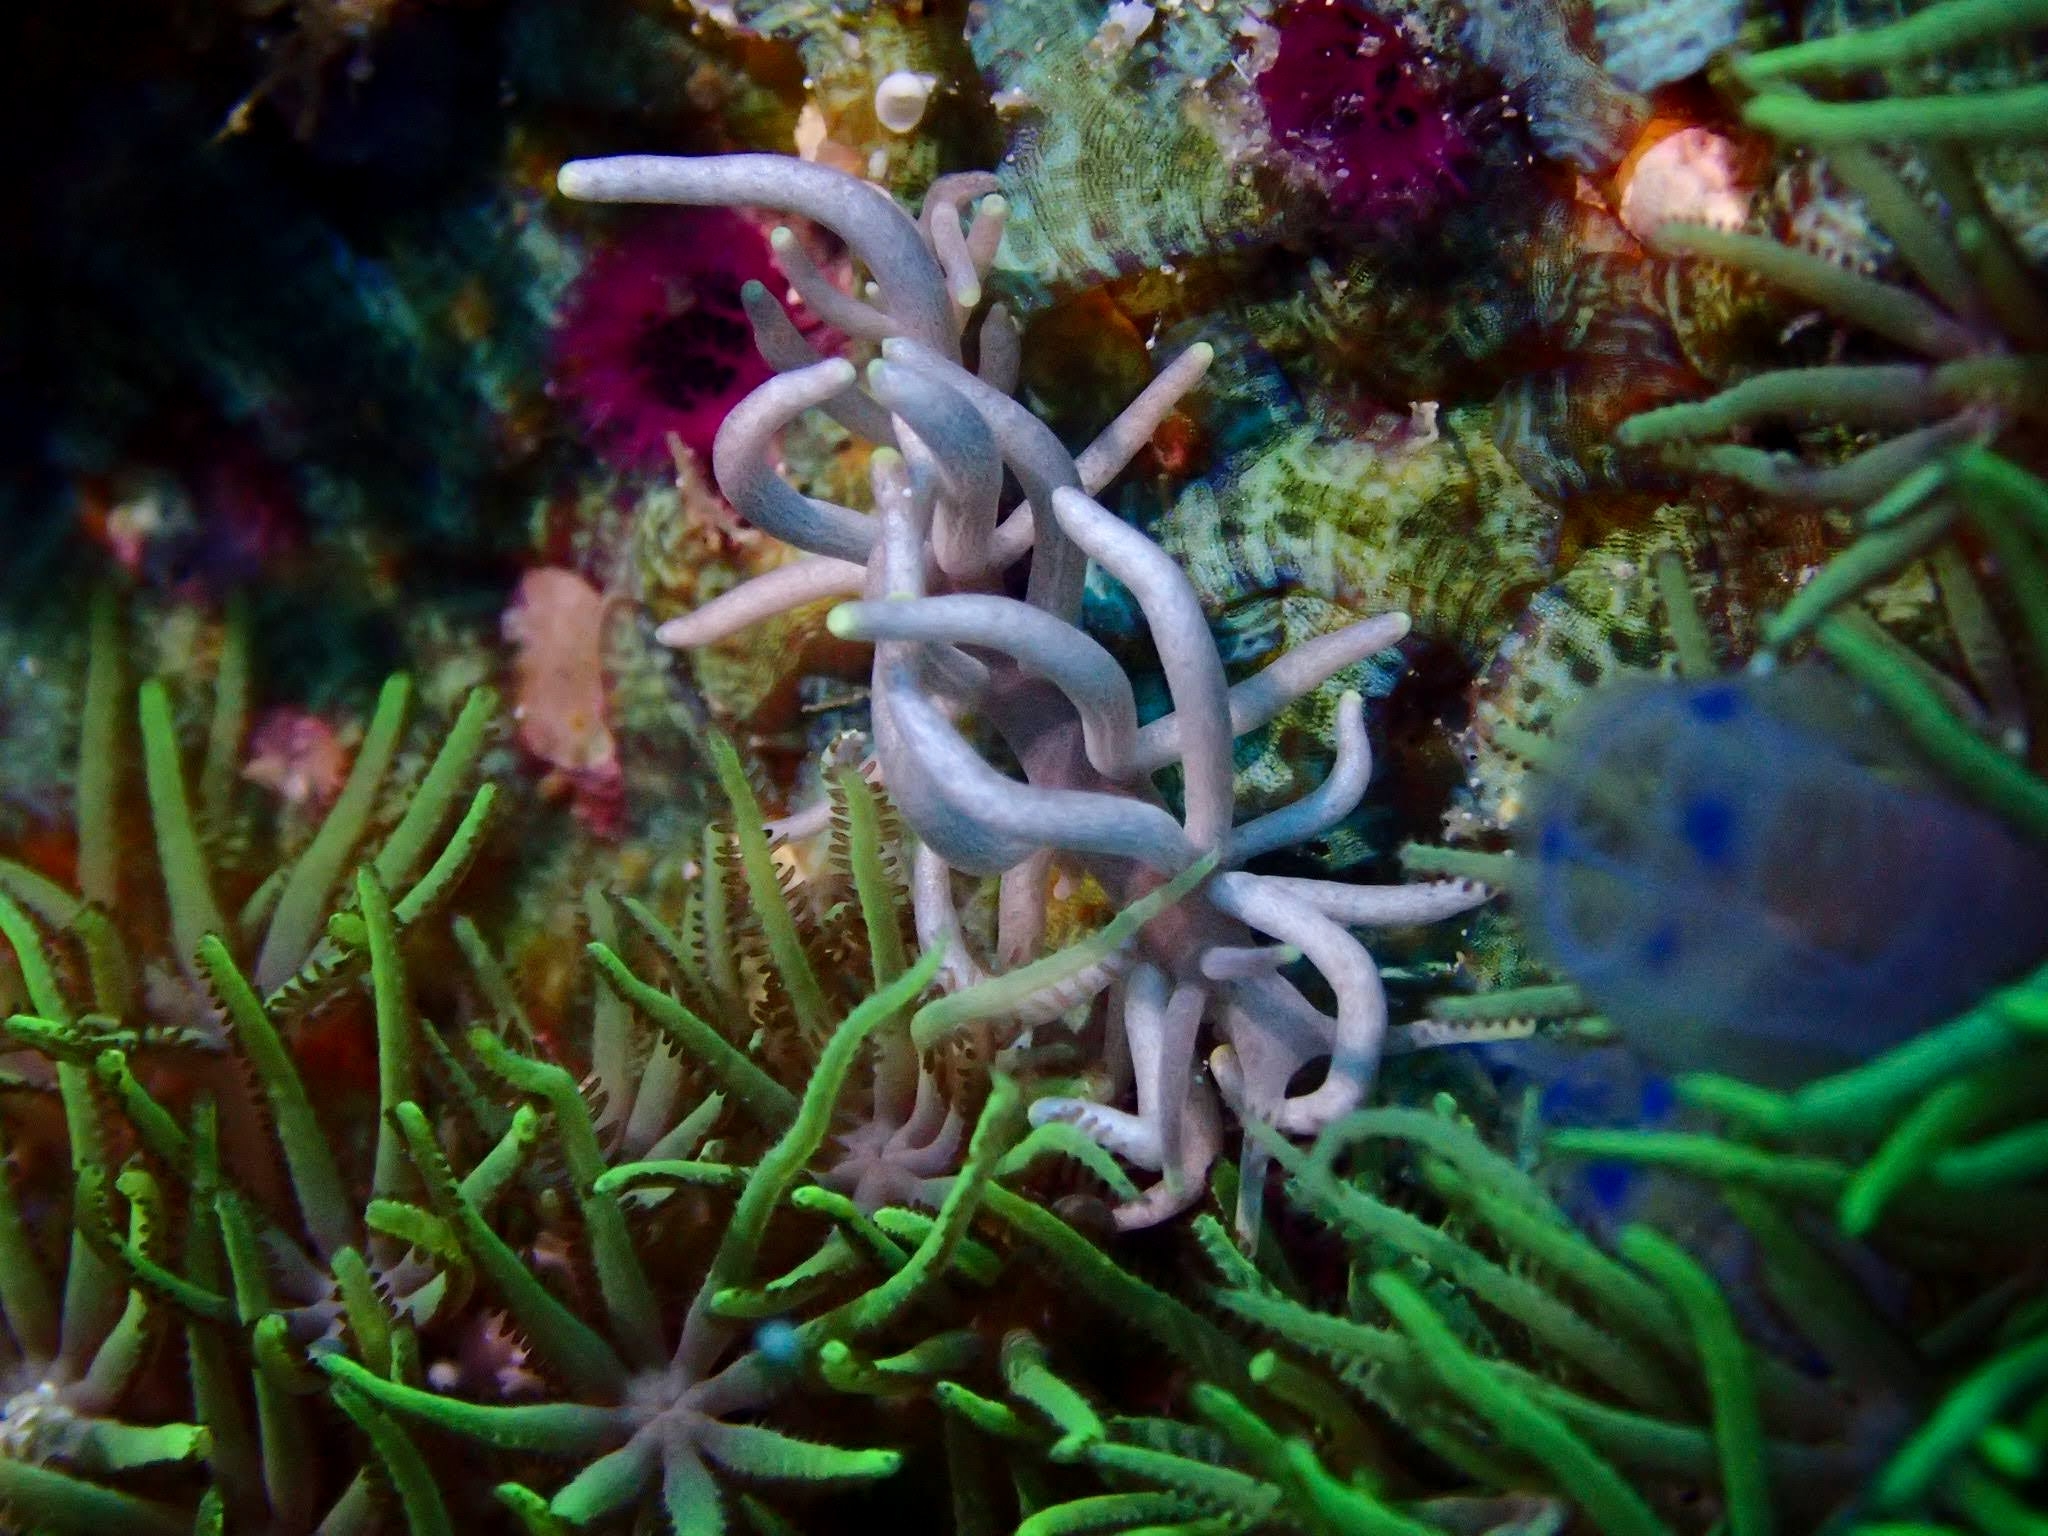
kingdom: Animalia
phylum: Mollusca
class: Gastropoda
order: Nudibranchia
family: Myrrhinidae
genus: Phyllodesmium
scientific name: Phyllodesmium briareum
